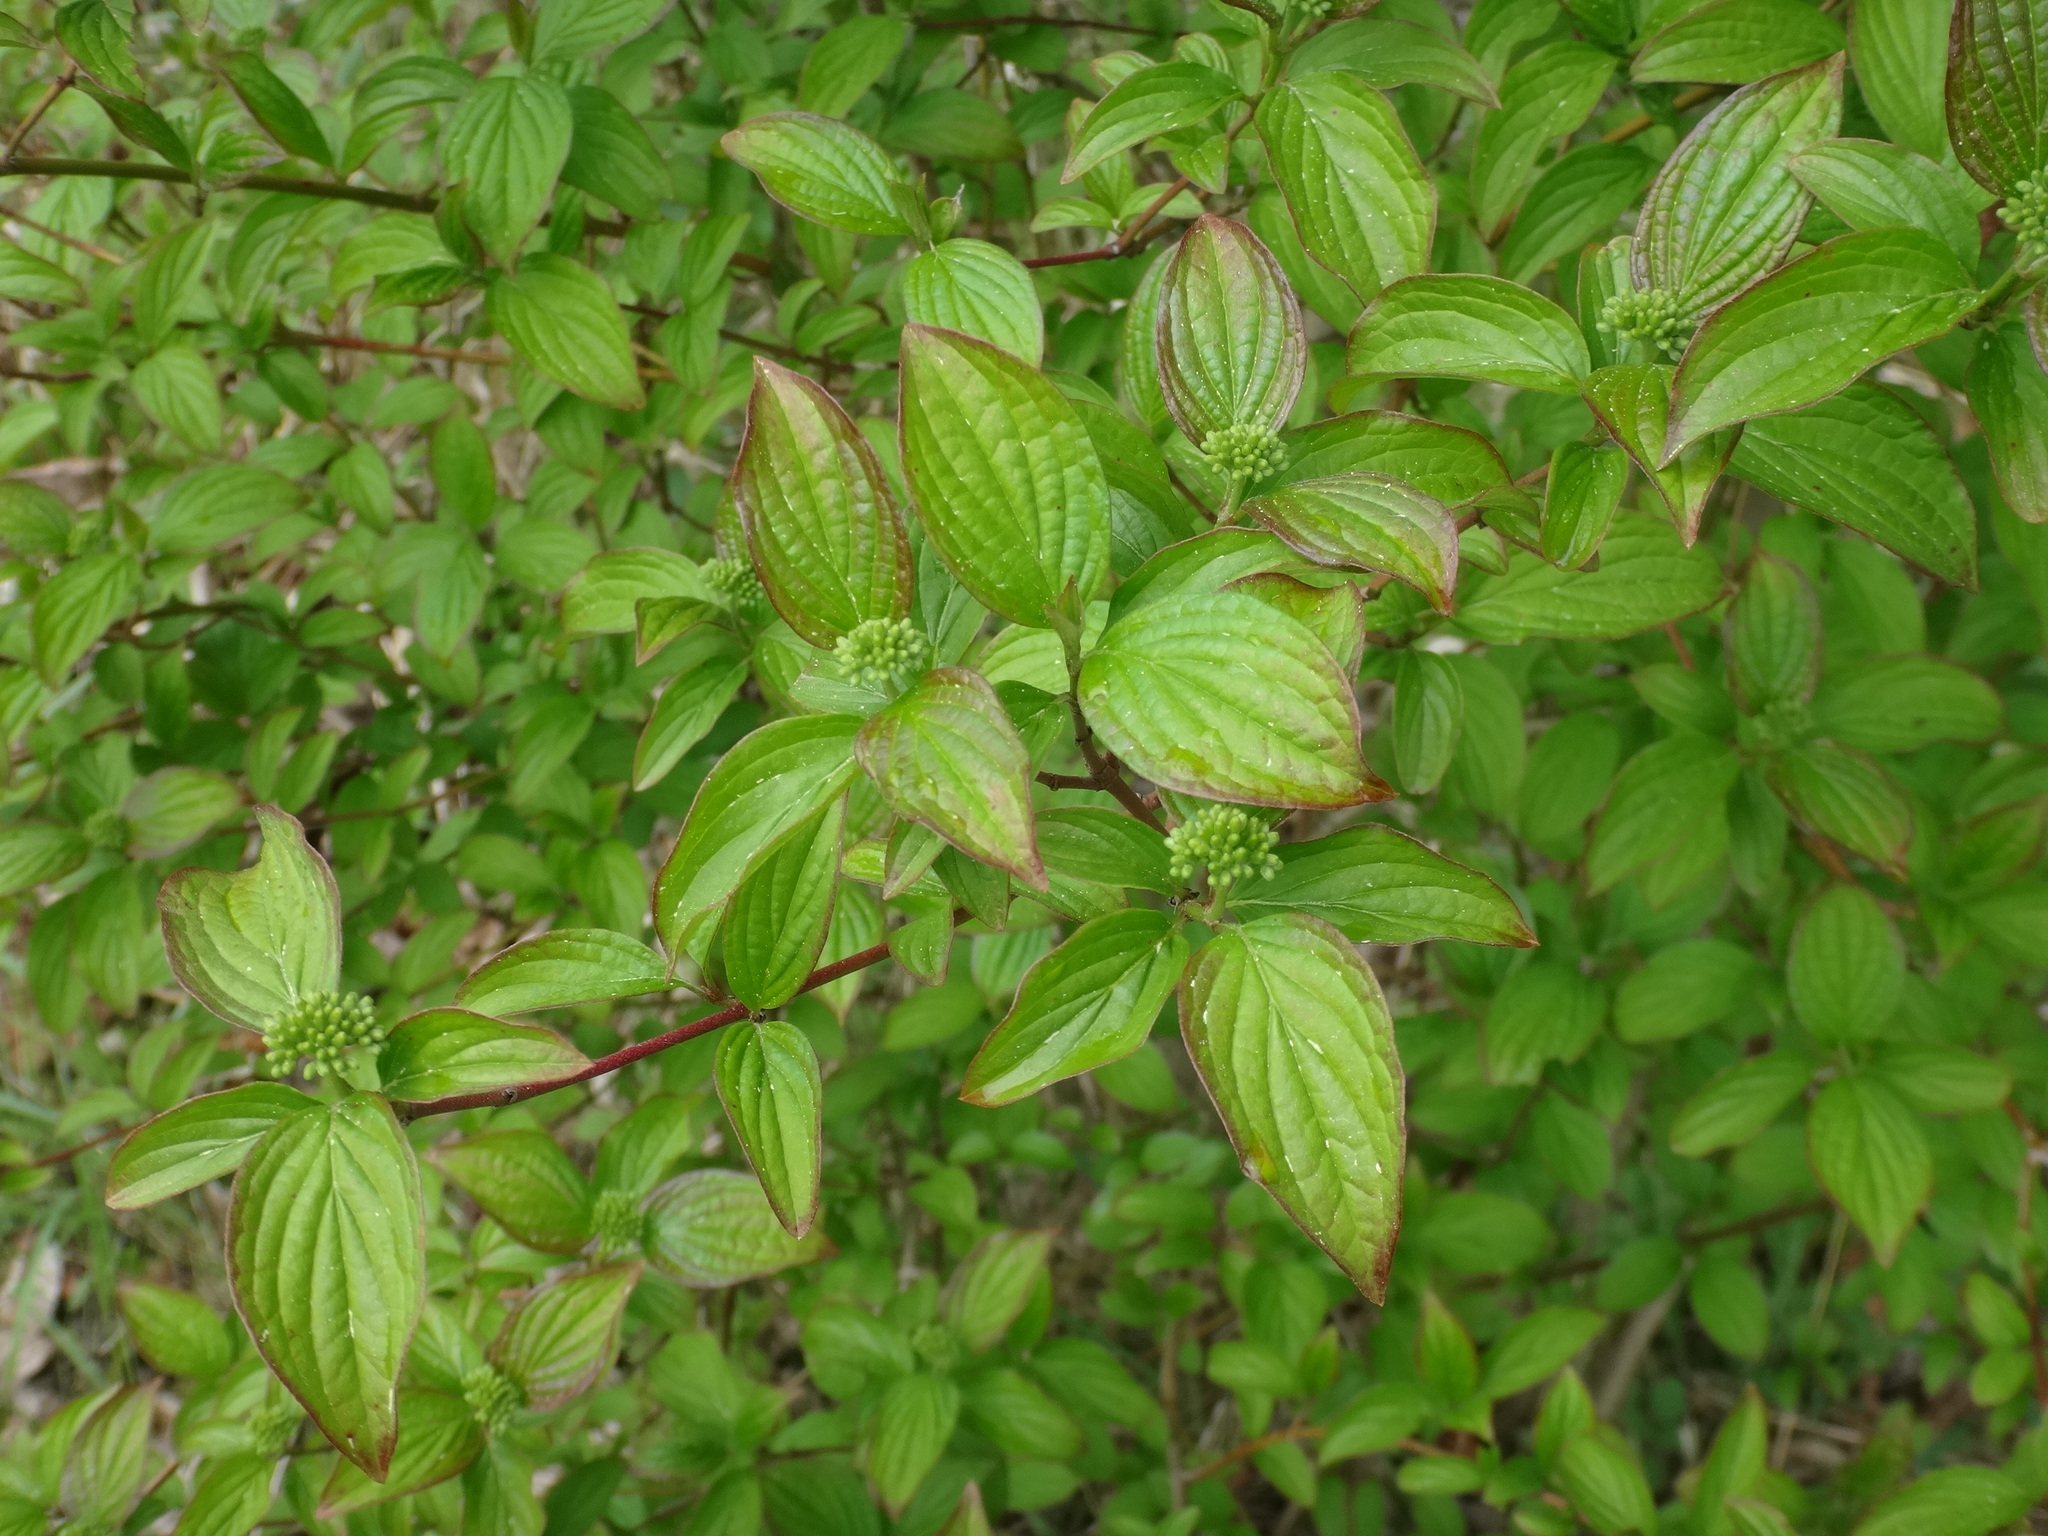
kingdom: Plantae
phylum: Tracheophyta
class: Magnoliopsida
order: Cornales
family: Cornaceae
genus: Cornus
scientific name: Cornus sanguinea
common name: Dogwood
